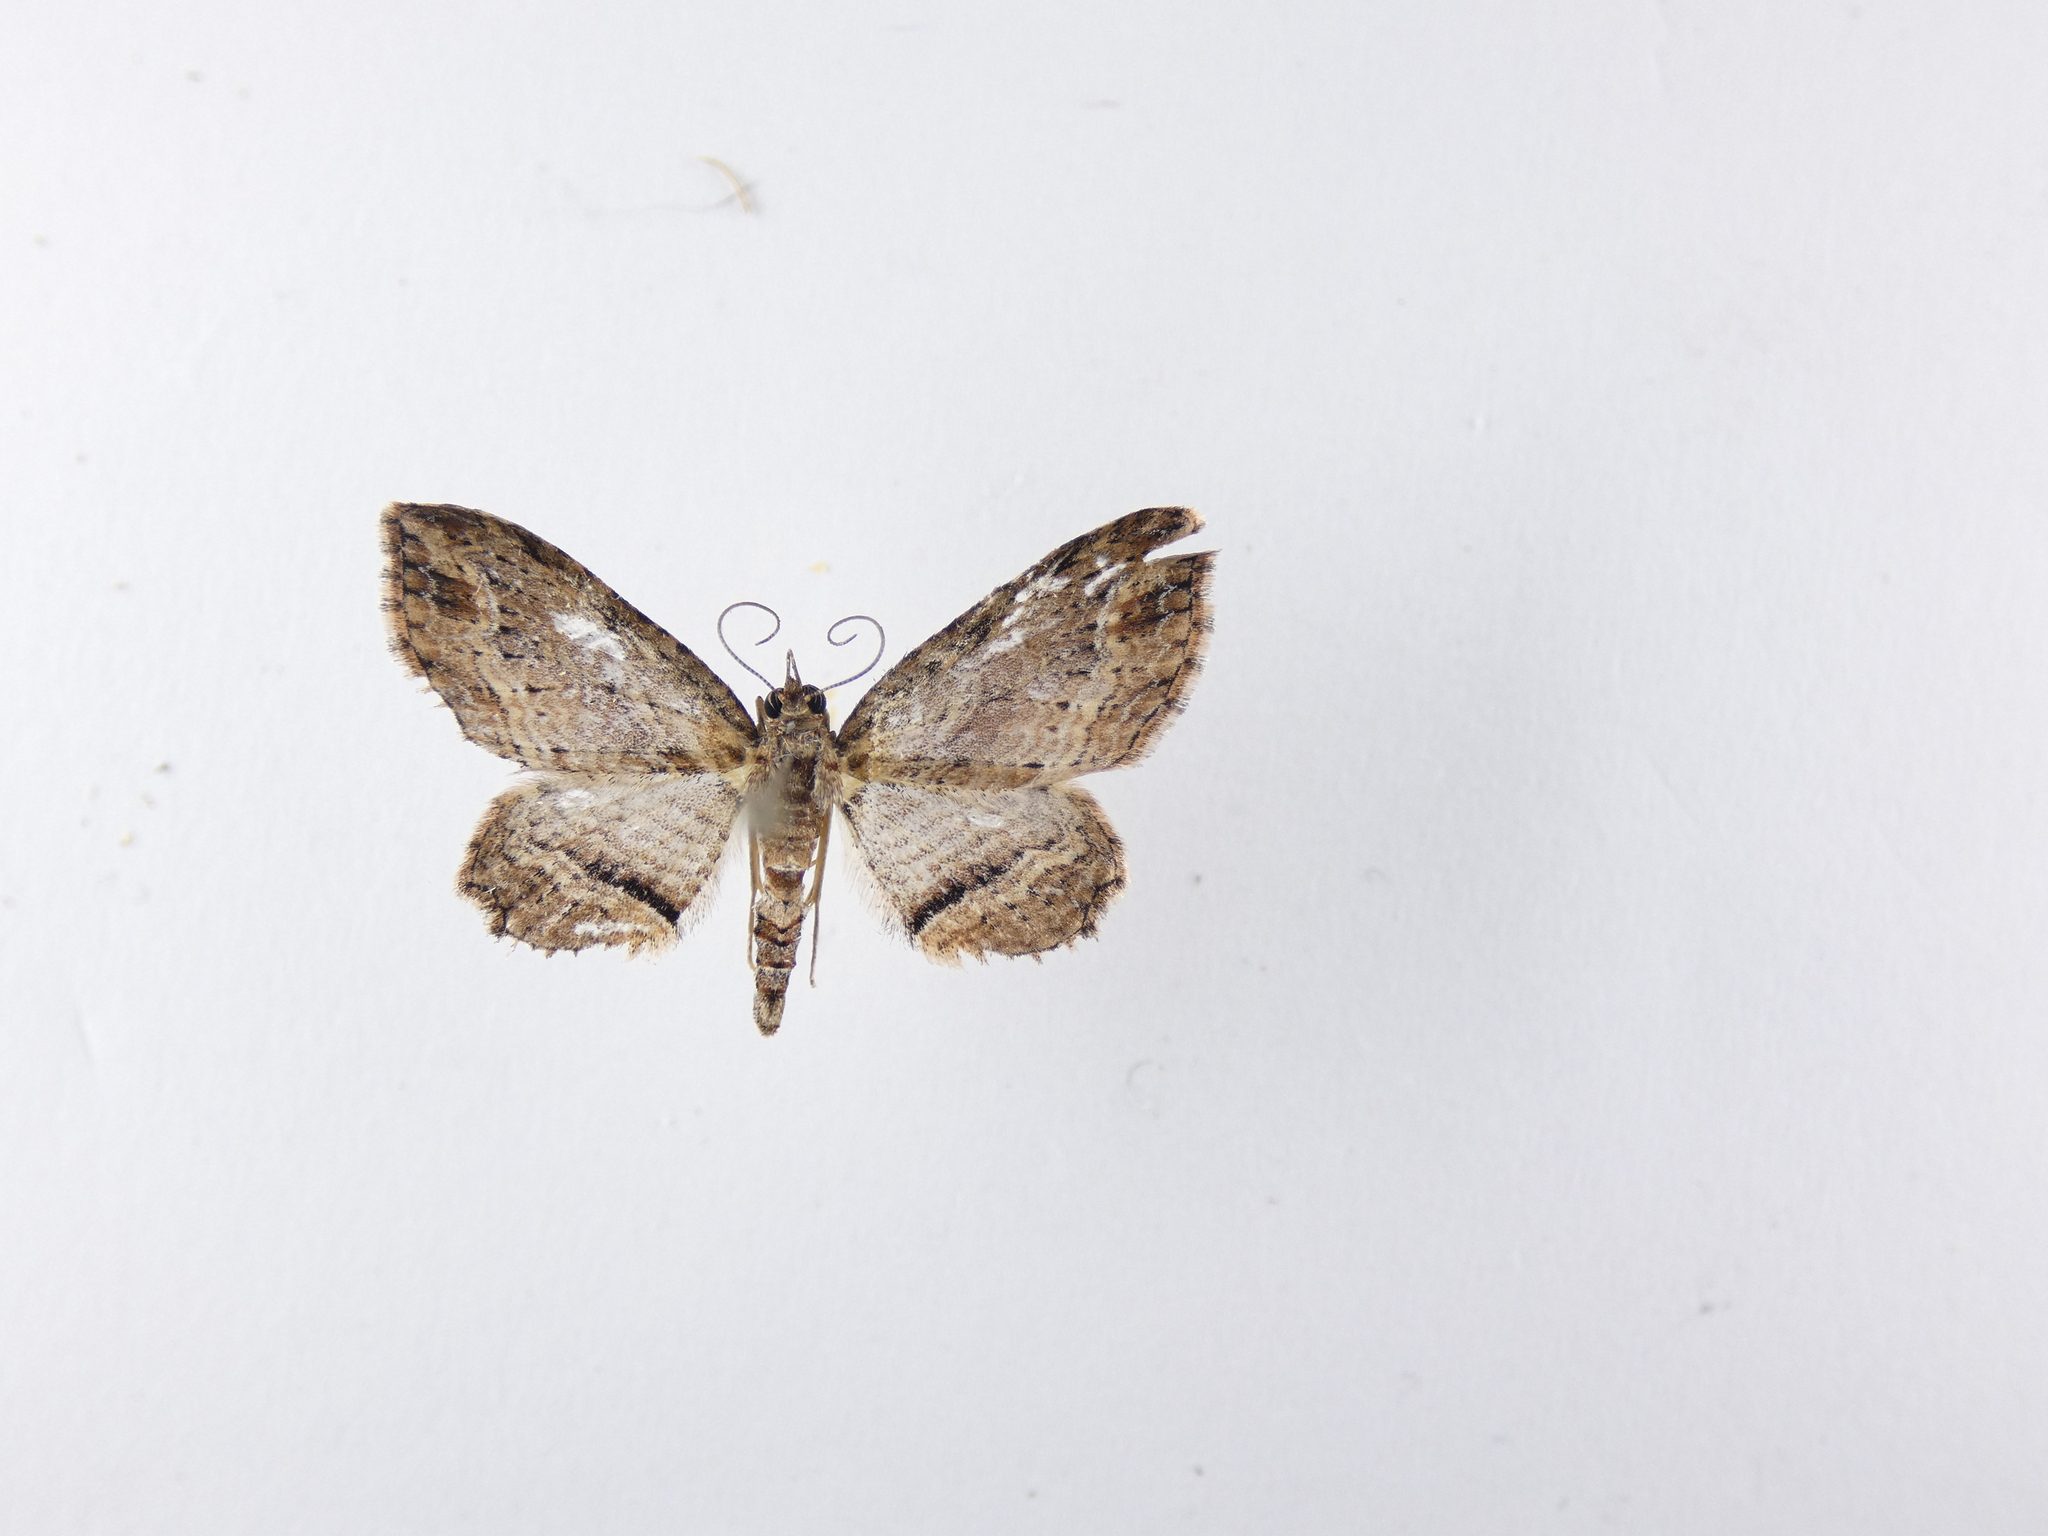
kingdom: Animalia
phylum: Arthropoda
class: Insecta
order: Lepidoptera
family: Geometridae
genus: Chloroclystis
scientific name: Chloroclystis filata
